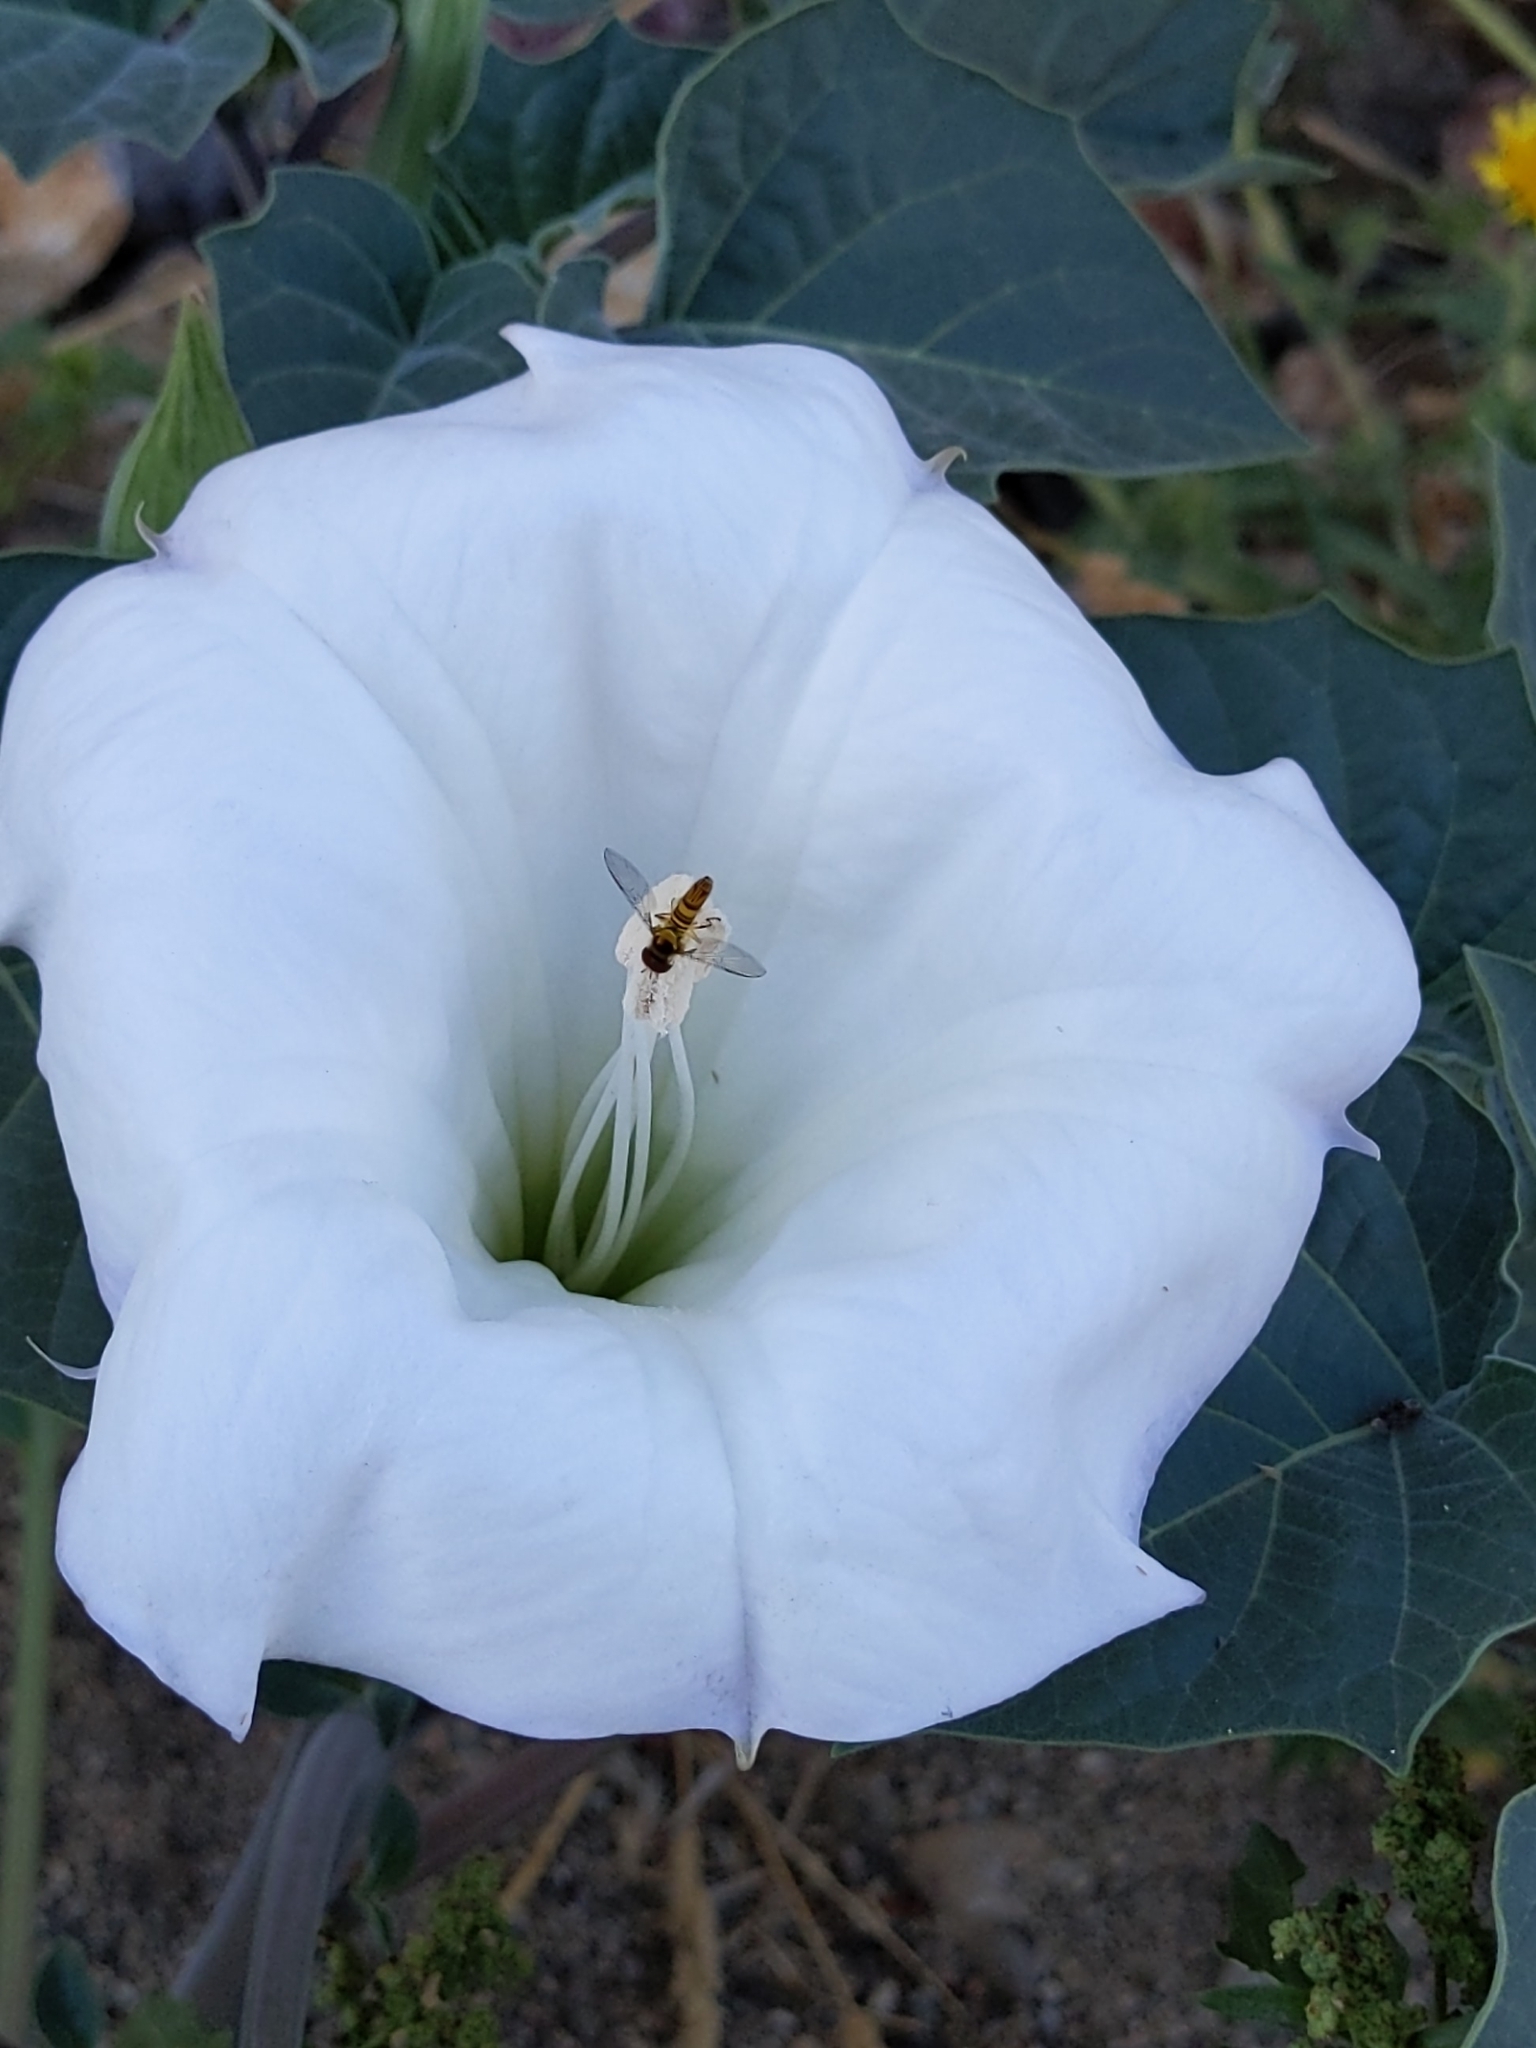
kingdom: Plantae
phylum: Tracheophyta
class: Magnoliopsida
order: Solanales
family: Solanaceae
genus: Datura
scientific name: Datura wrightii
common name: Sacred thorn-apple
